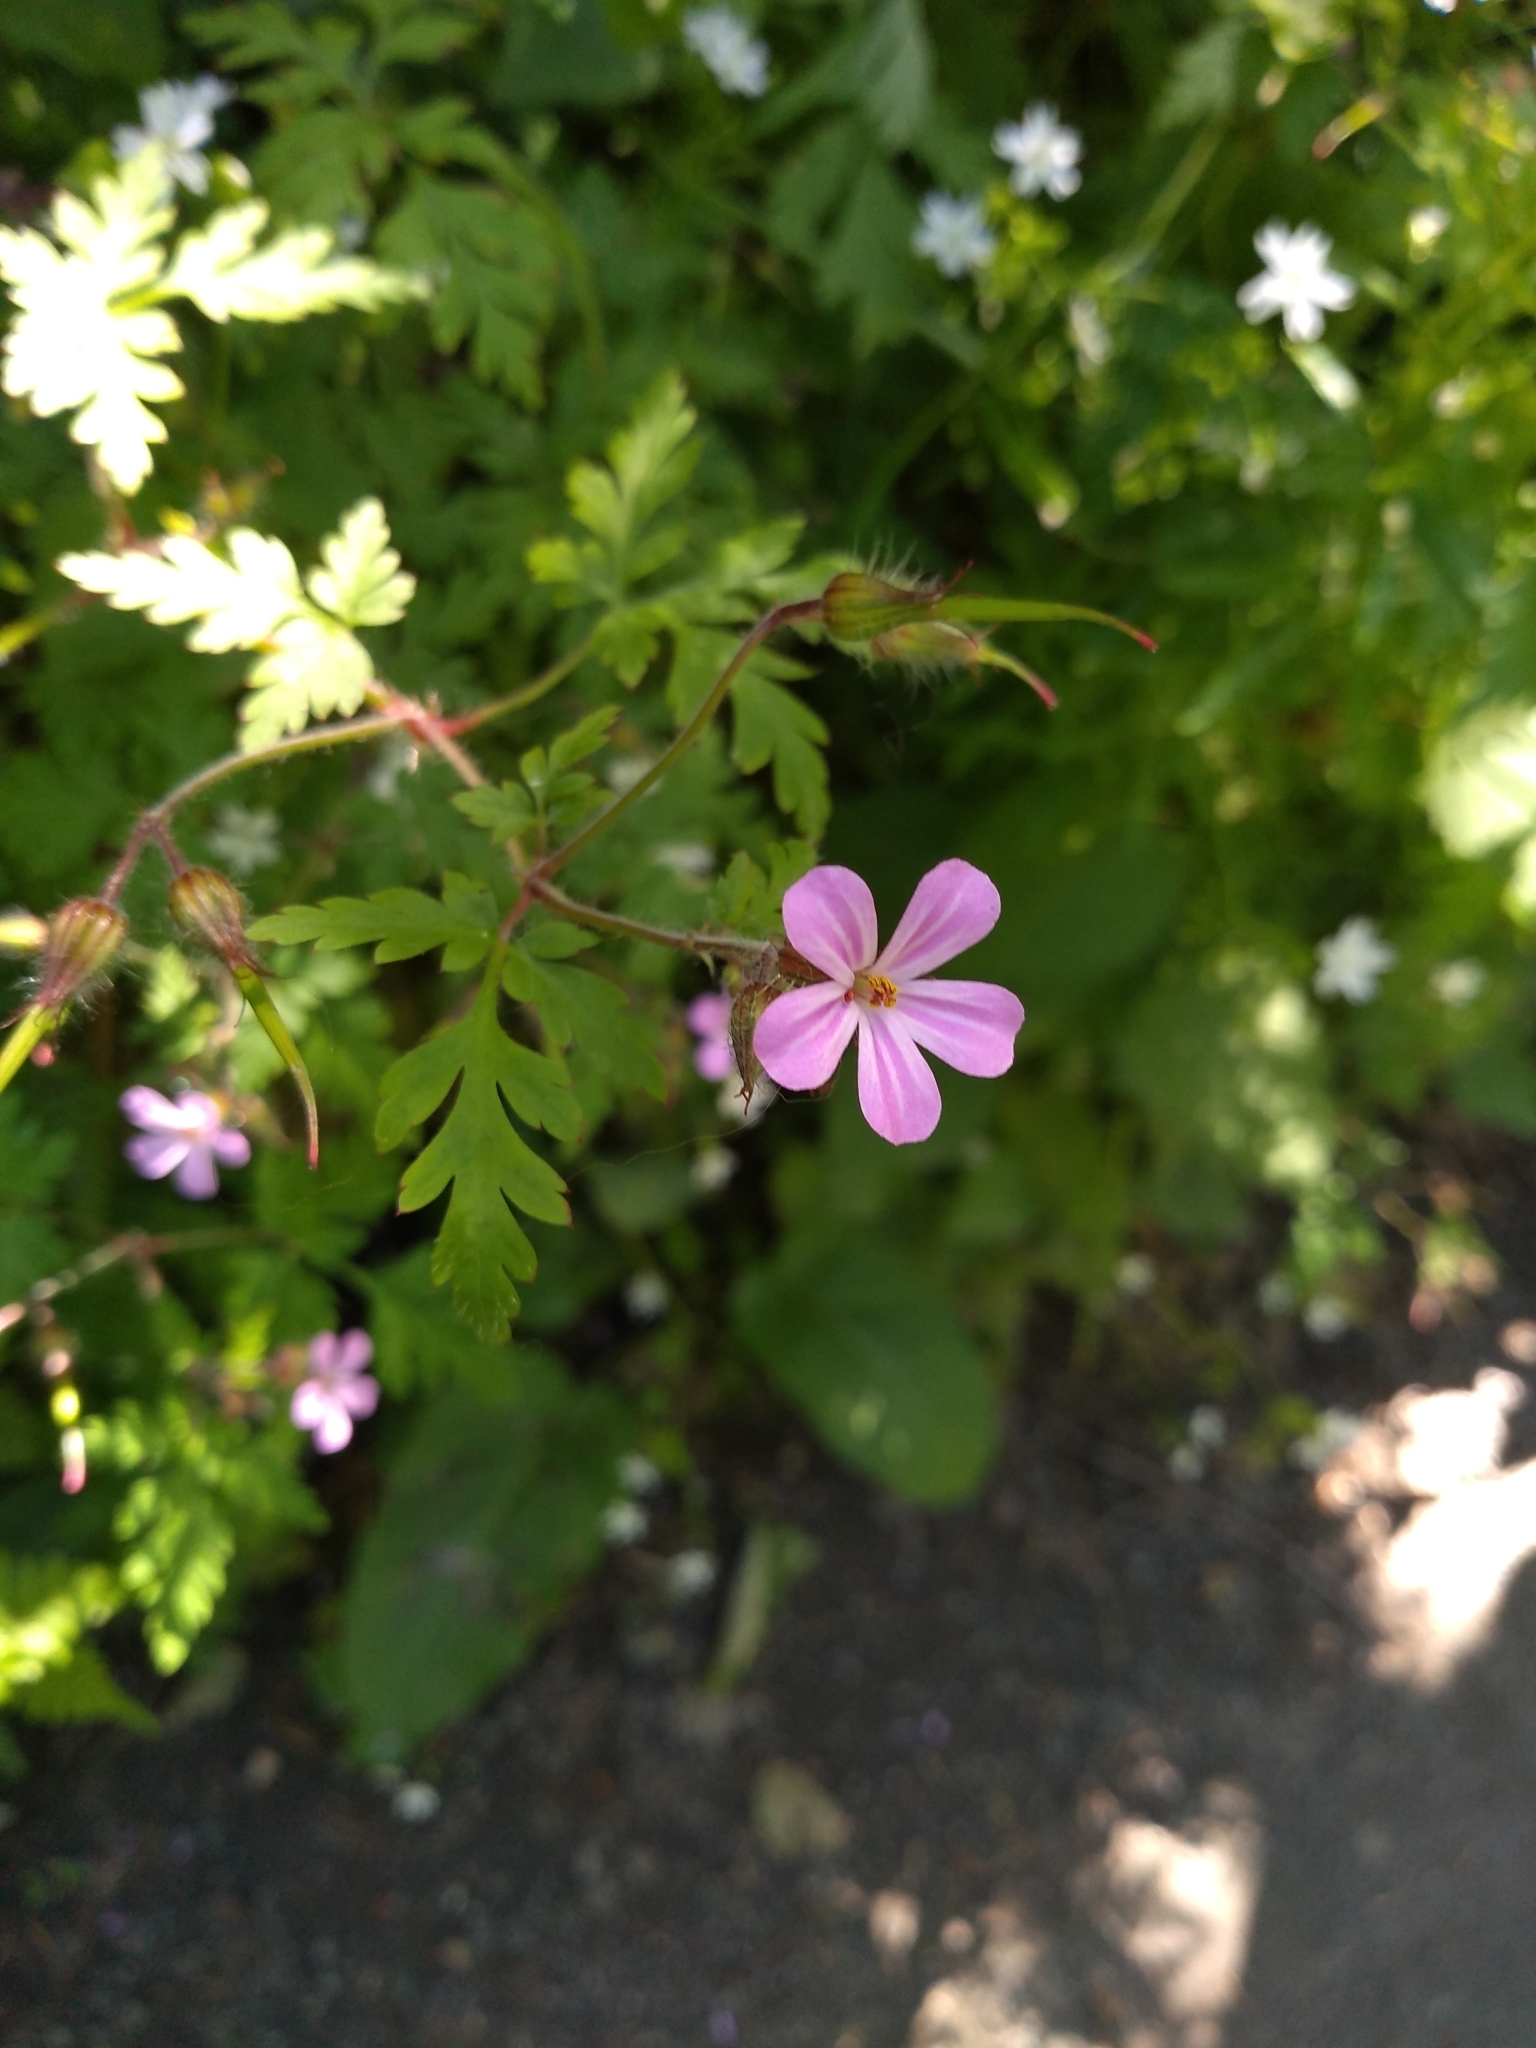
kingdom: Plantae
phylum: Tracheophyta
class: Magnoliopsida
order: Geraniales
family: Geraniaceae
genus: Geranium
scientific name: Geranium robertianum
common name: Herb-robert
